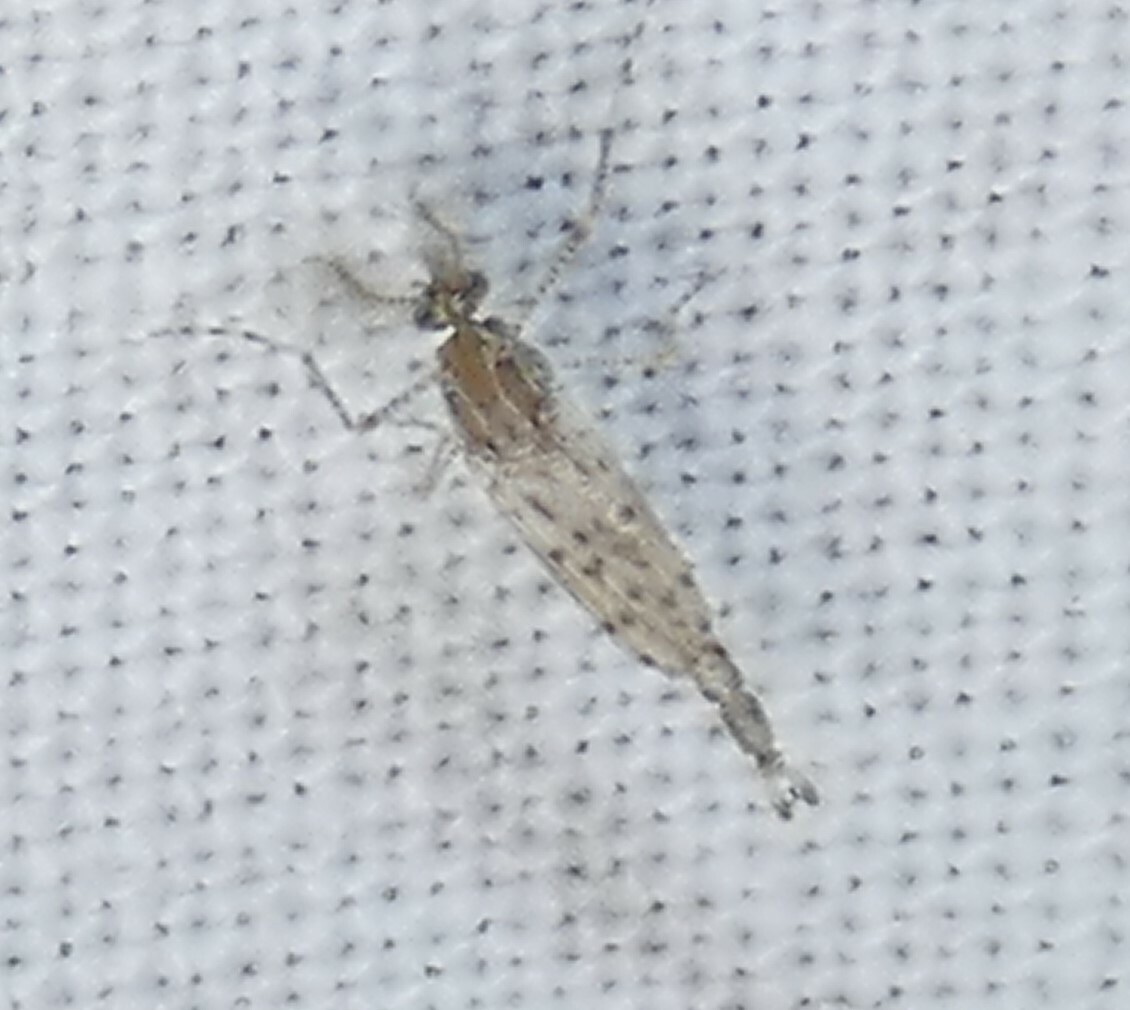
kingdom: Animalia
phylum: Arthropoda
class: Insecta
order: Diptera
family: Chaoboridae
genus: Chaoborus
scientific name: Chaoborus punctipennis
